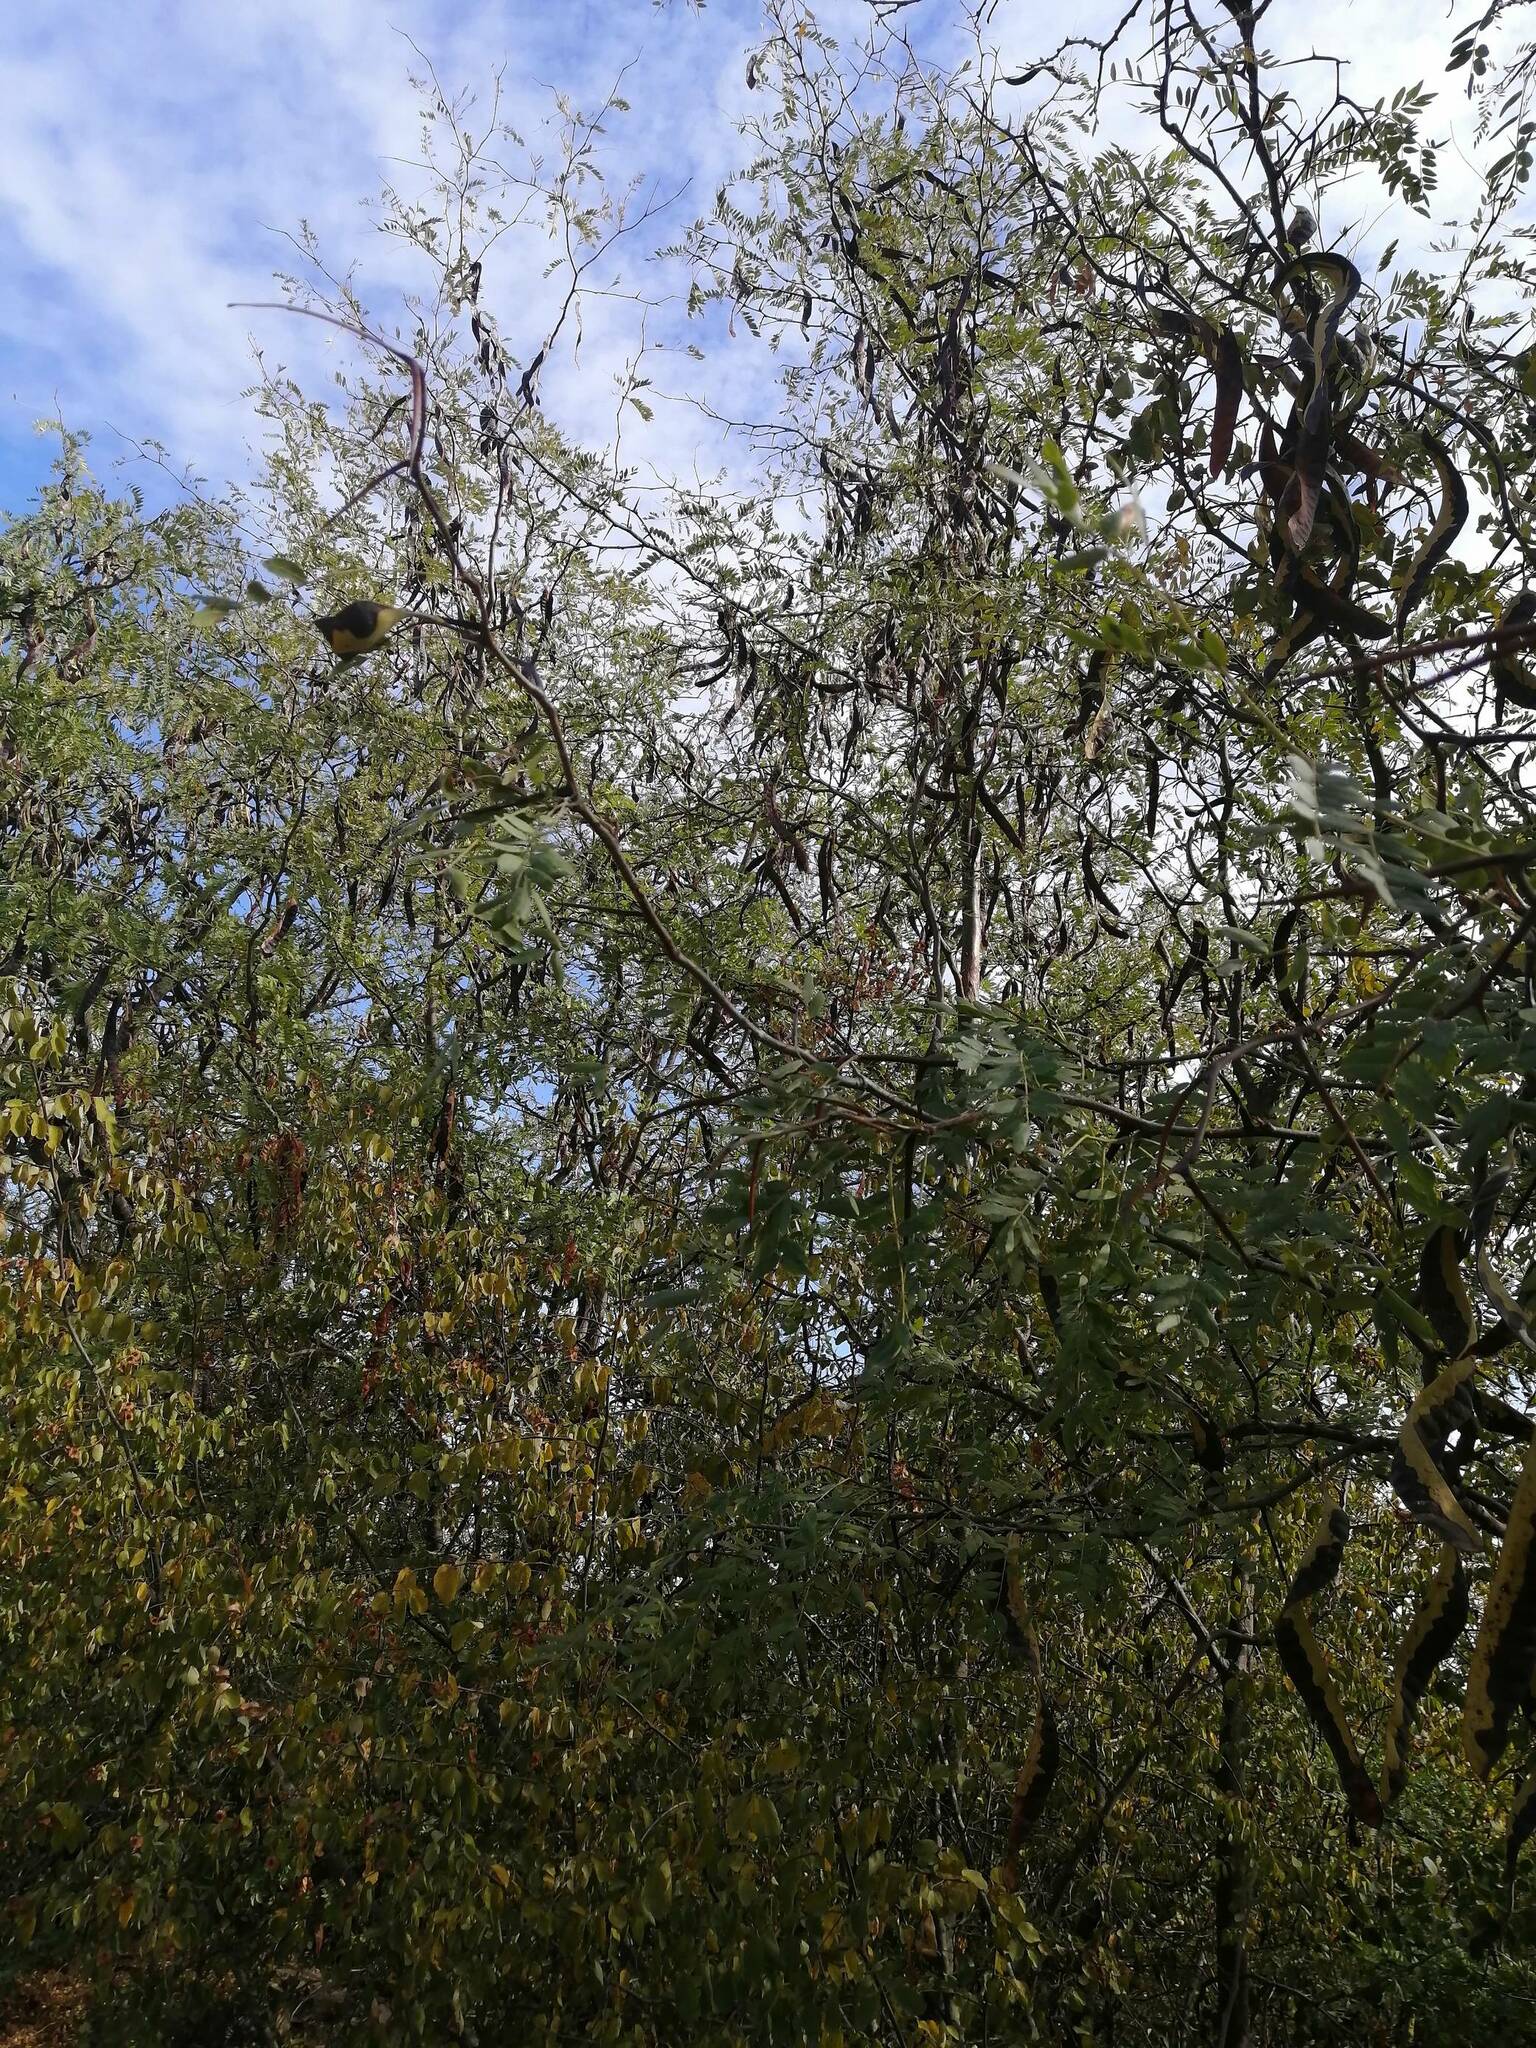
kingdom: Plantae
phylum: Tracheophyta
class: Magnoliopsida
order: Fabales
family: Fabaceae
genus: Gleditsia
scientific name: Gleditsia triacanthos
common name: Common honeylocust
